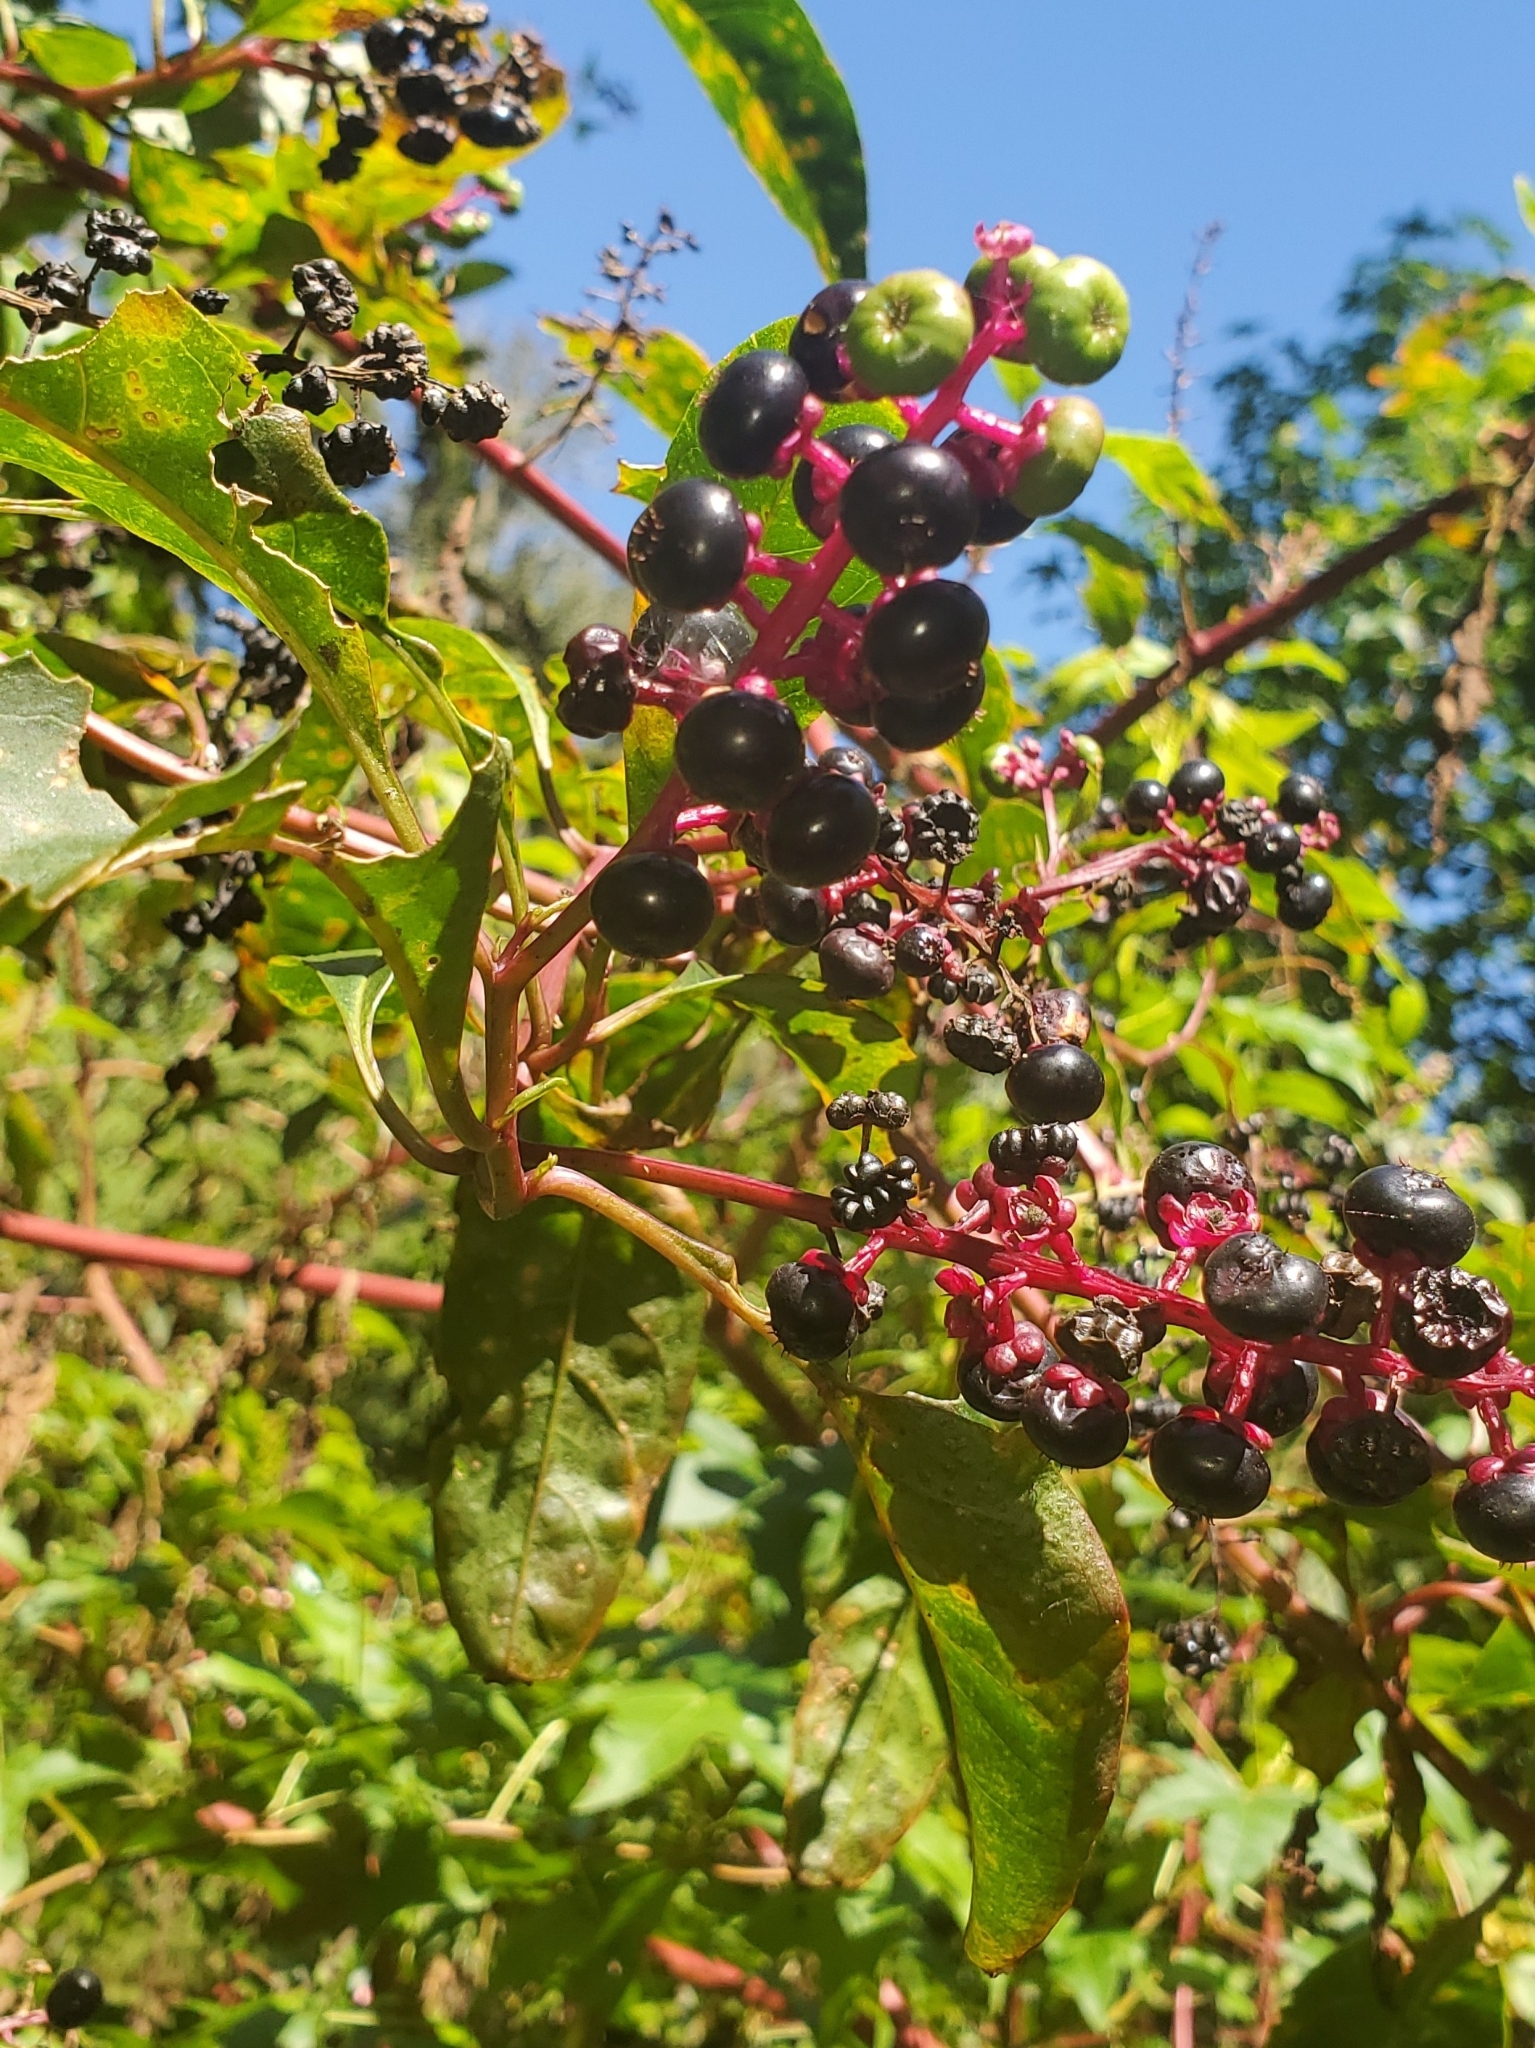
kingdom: Plantae
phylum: Tracheophyta
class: Magnoliopsida
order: Caryophyllales
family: Phytolaccaceae
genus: Phytolacca
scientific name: Phytolacca americana
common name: American pokeweed
